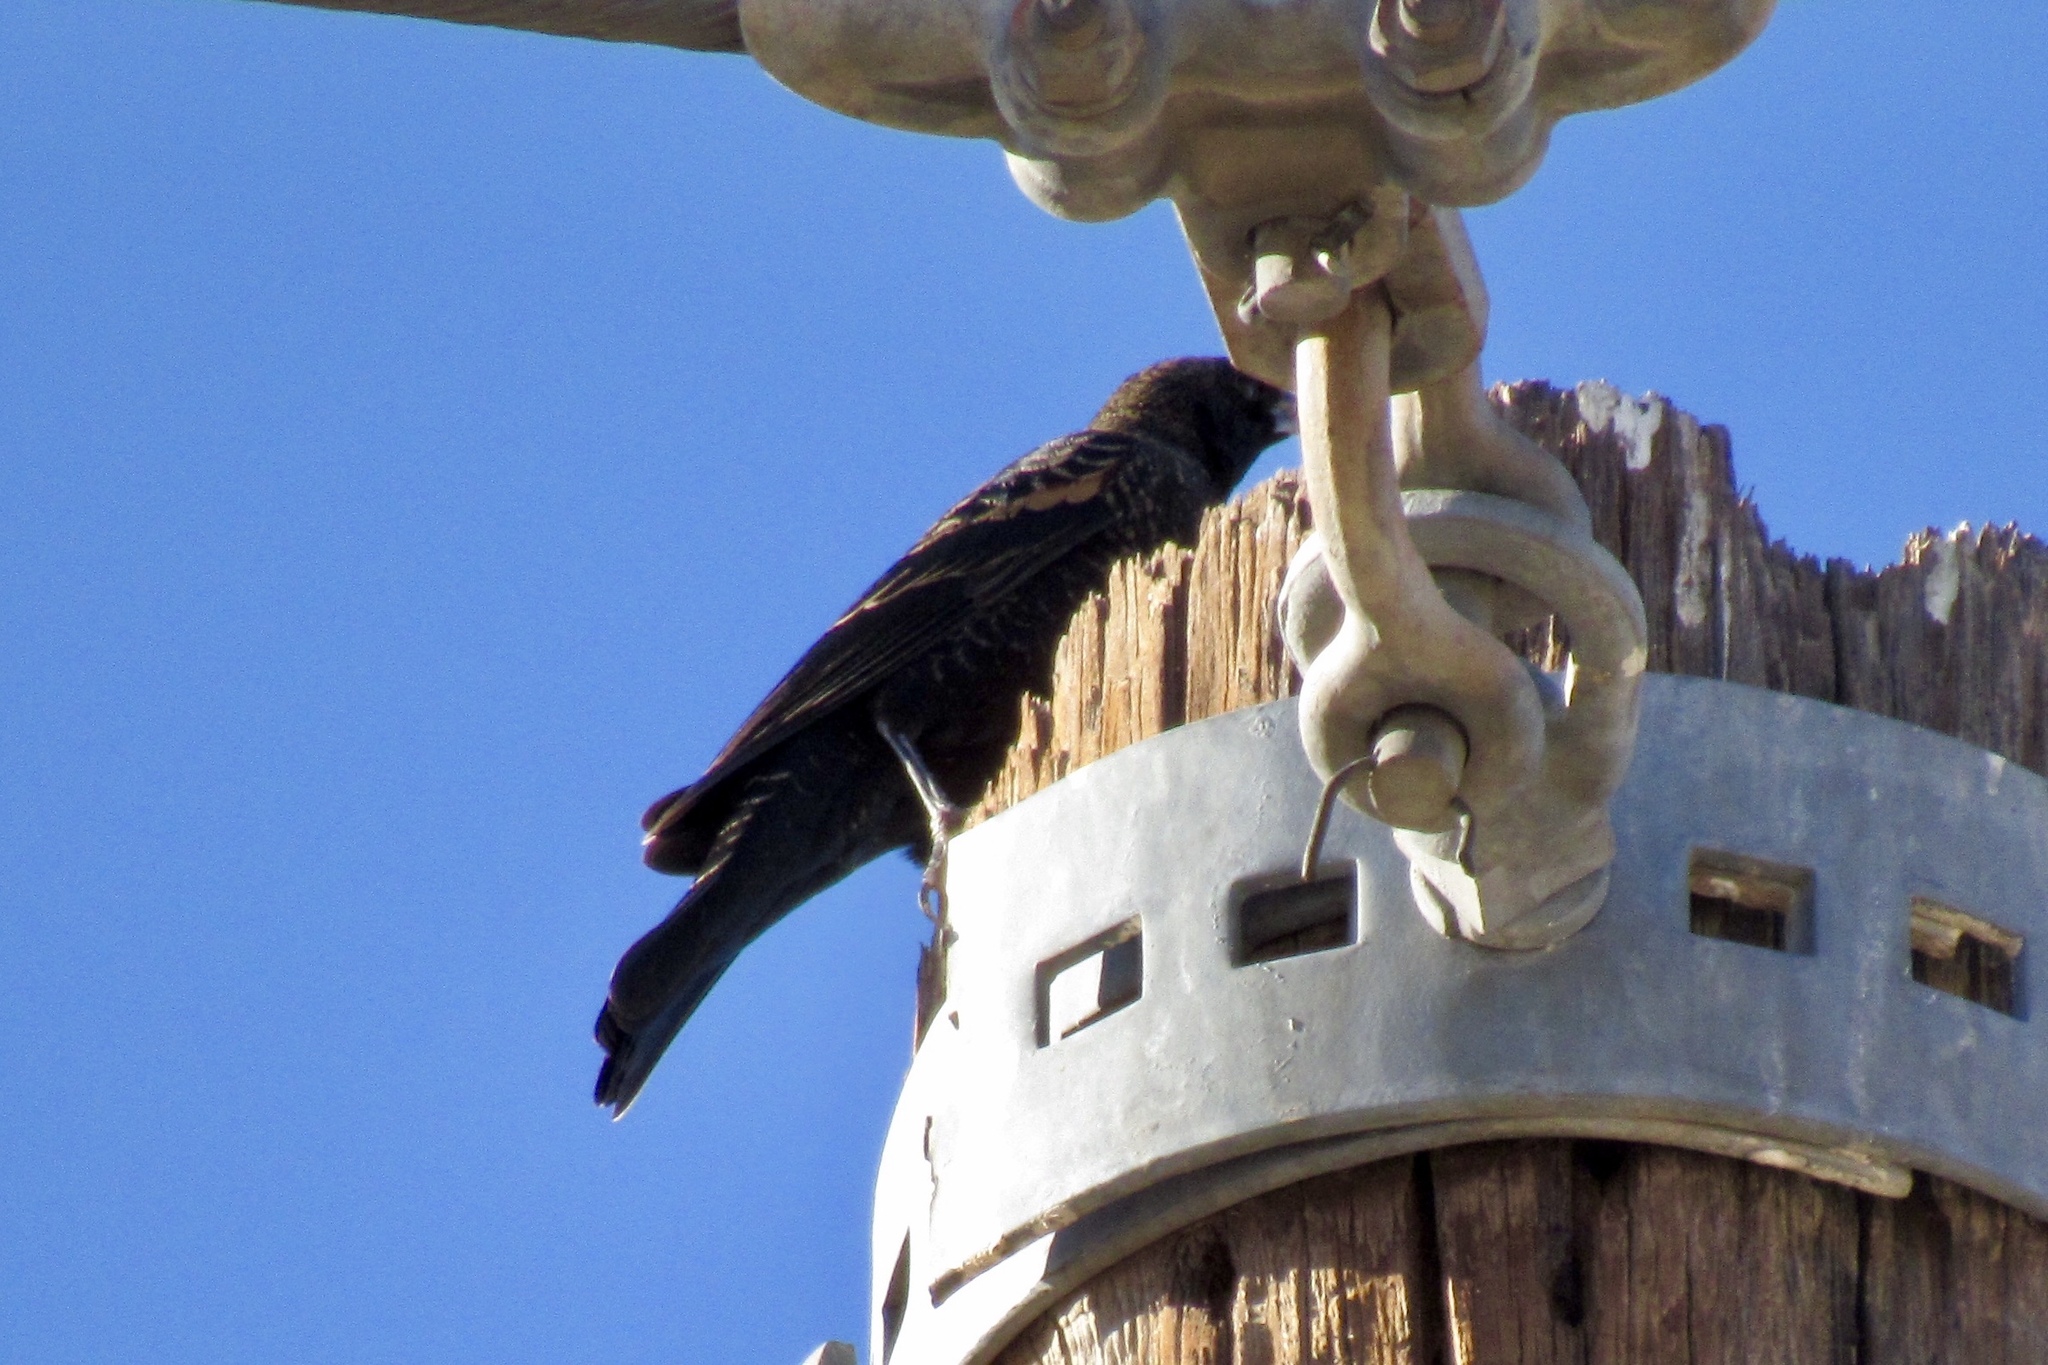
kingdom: Animalia
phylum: Chordata
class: Aves
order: Passeriformes
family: Icteridae
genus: Agelaius
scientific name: Agelaius phoeniceus
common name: Red-winged blackbird
